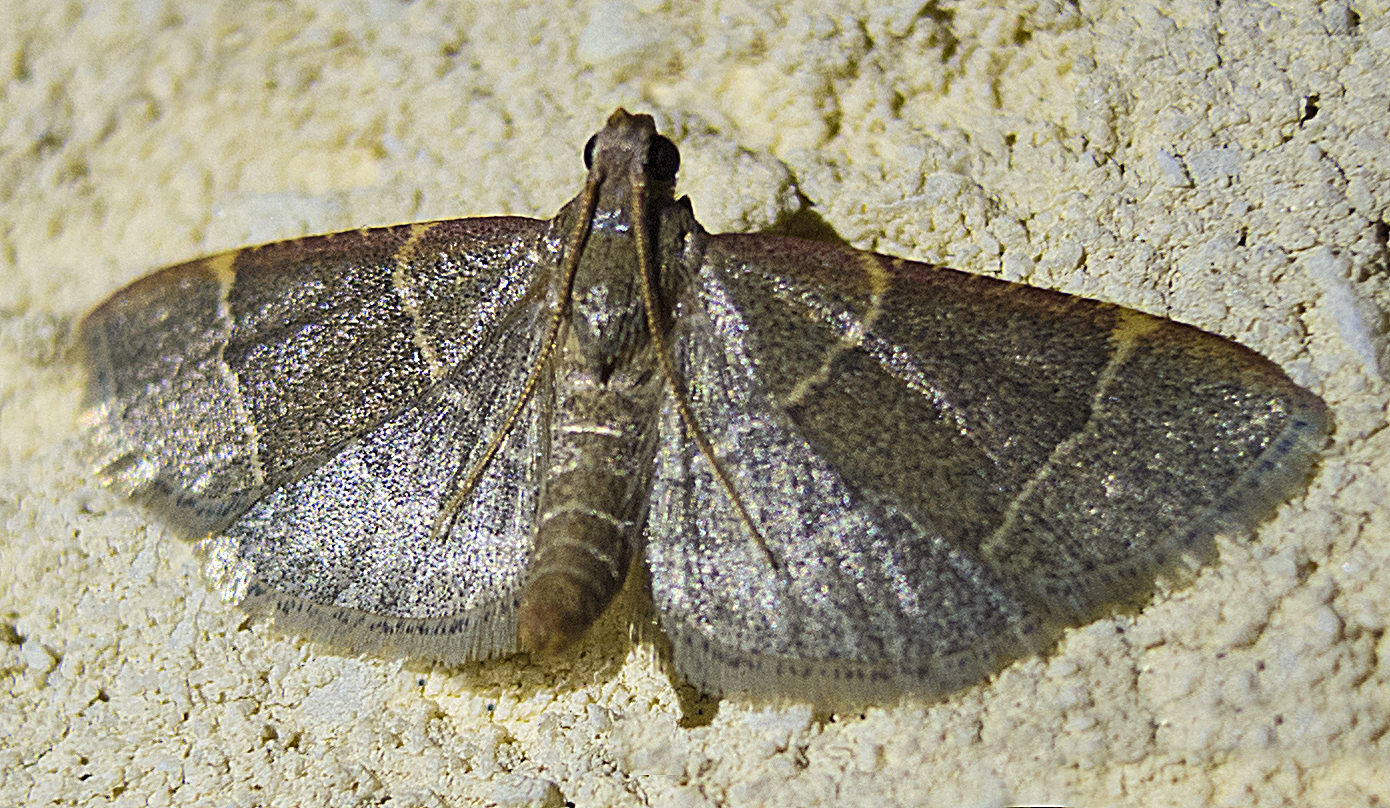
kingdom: Animalia
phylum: Arthropoda
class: Insecta
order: Lepidoptera
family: Pyralidae
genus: Hypsopygia
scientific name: Hypsopygia glaucinalis
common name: Double-striped tabby
